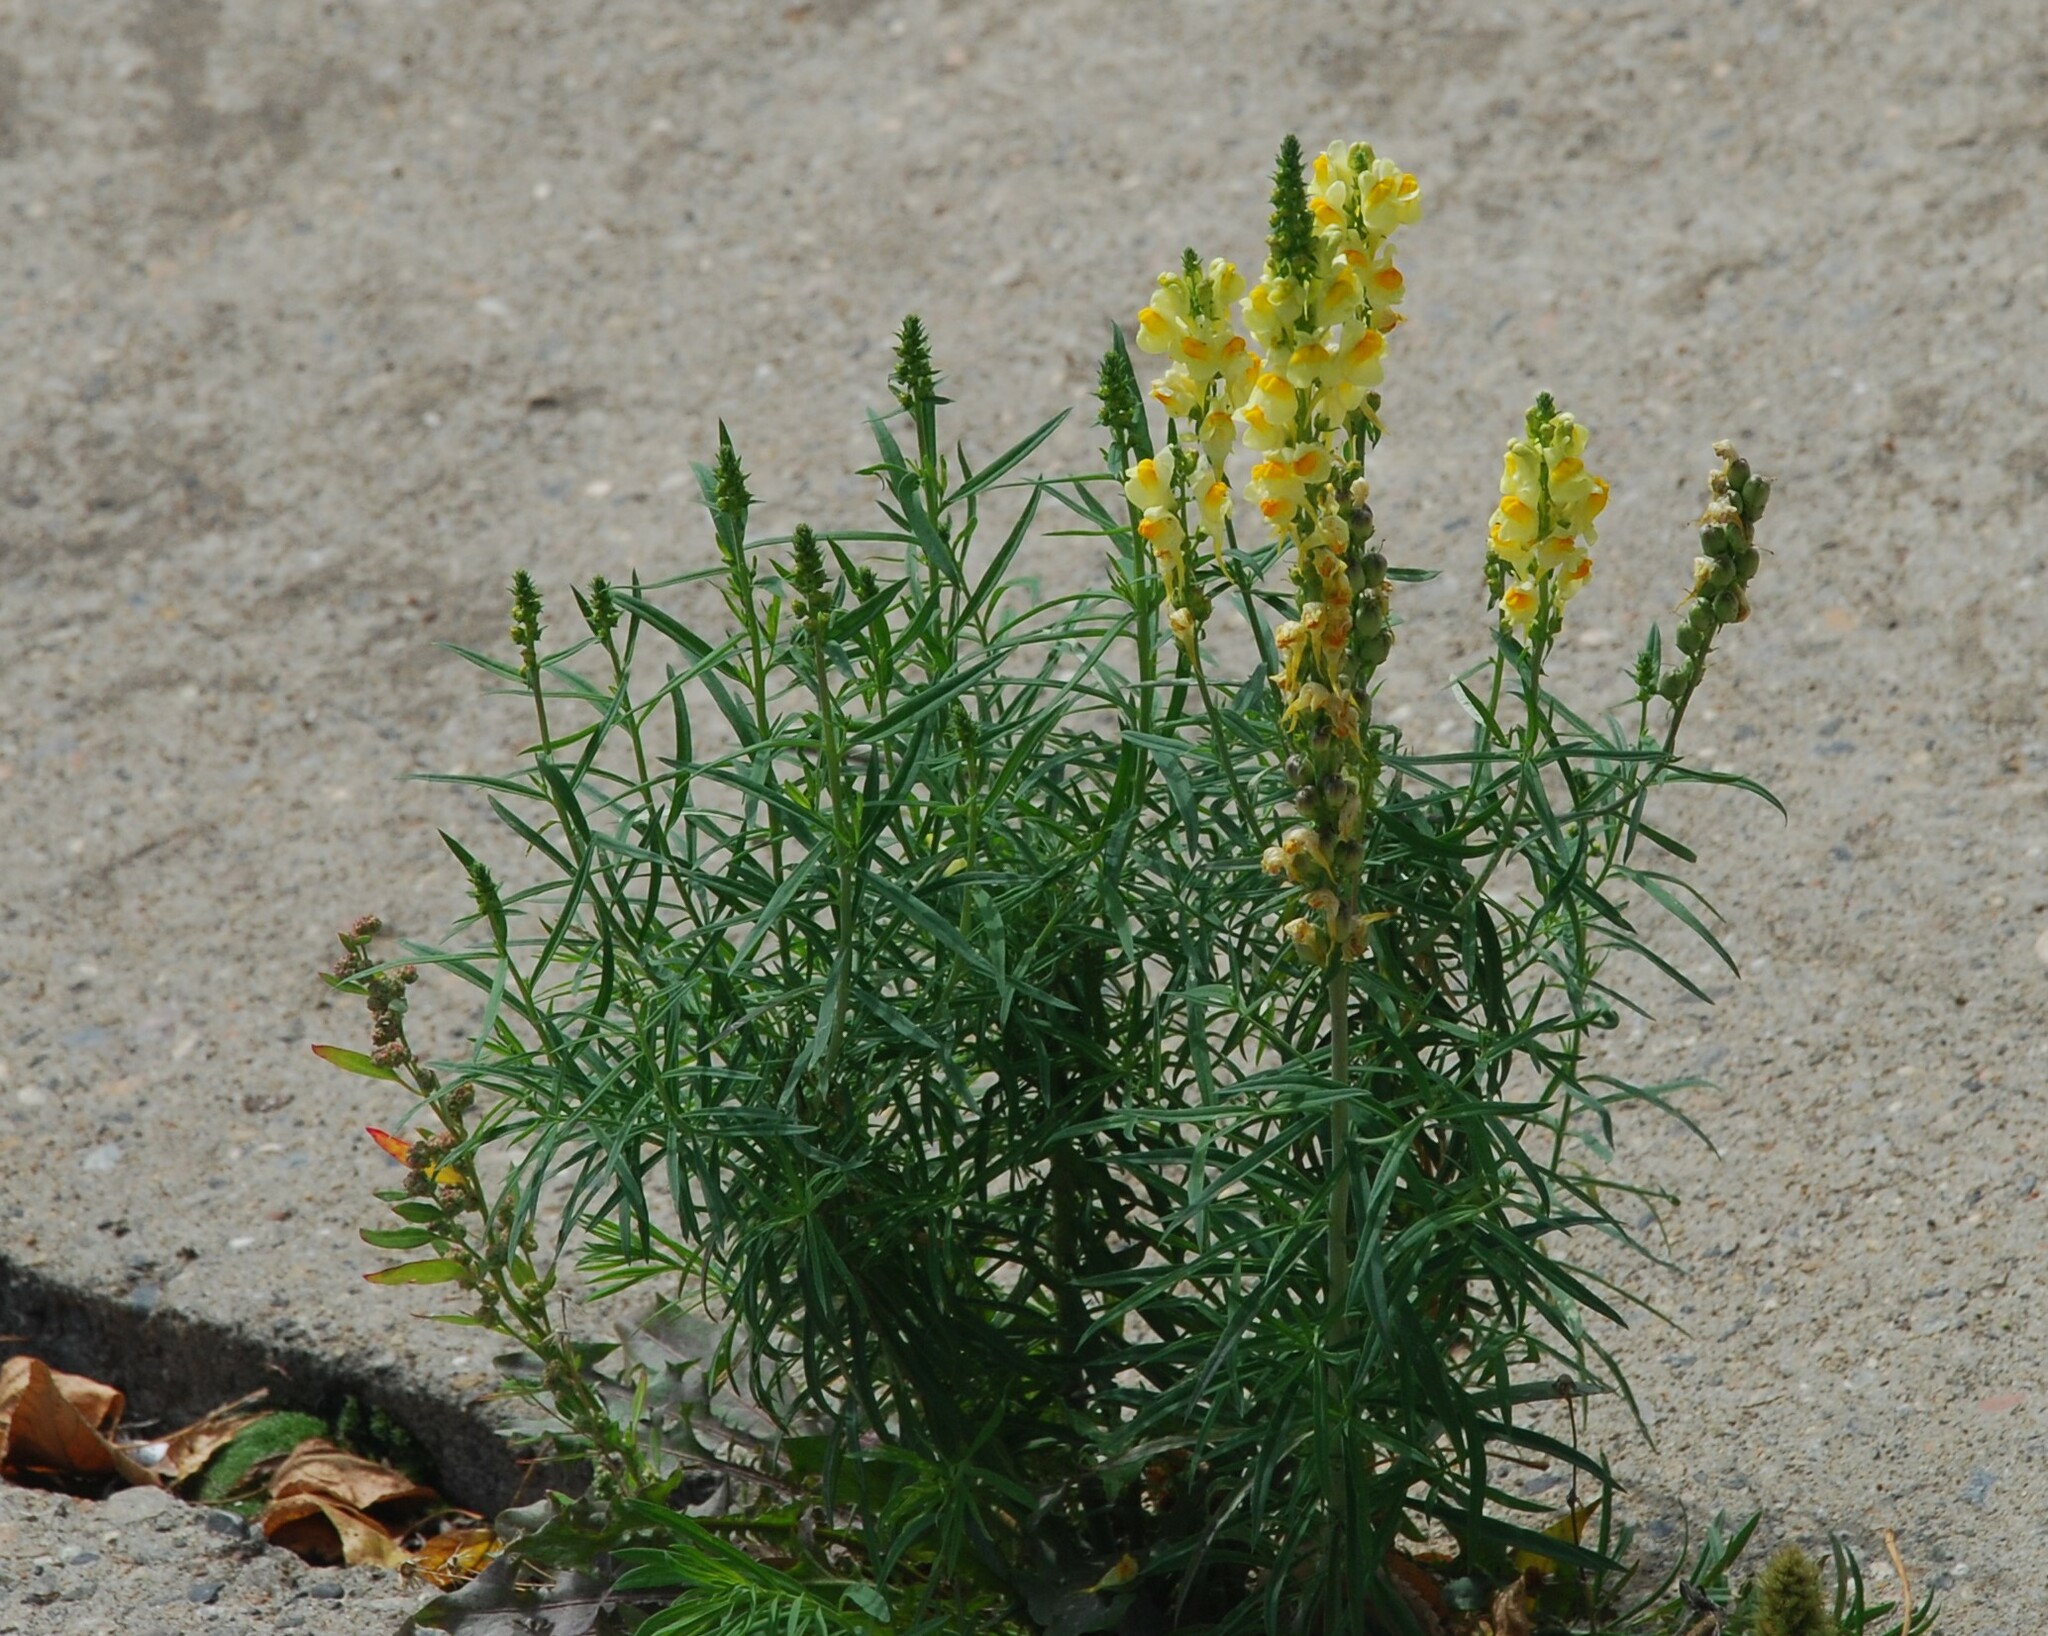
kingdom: Plantae
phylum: Tracheophyta
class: Magnoliopsida
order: Lamiales
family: Plantaginaceae
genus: Linaria
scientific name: Linaria vulgaris
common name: Butter and eggs
